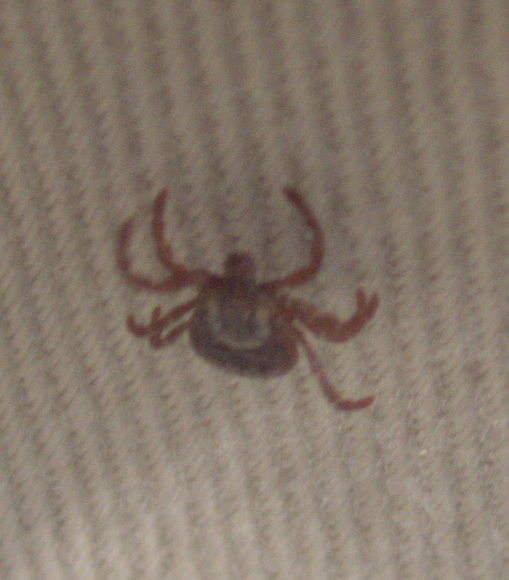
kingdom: Animalia
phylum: Arthropoda
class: Arachnida
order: Ixodida
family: Ixodidae
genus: Dermacentor
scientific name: Dermacentor variabilis
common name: American dog tick
